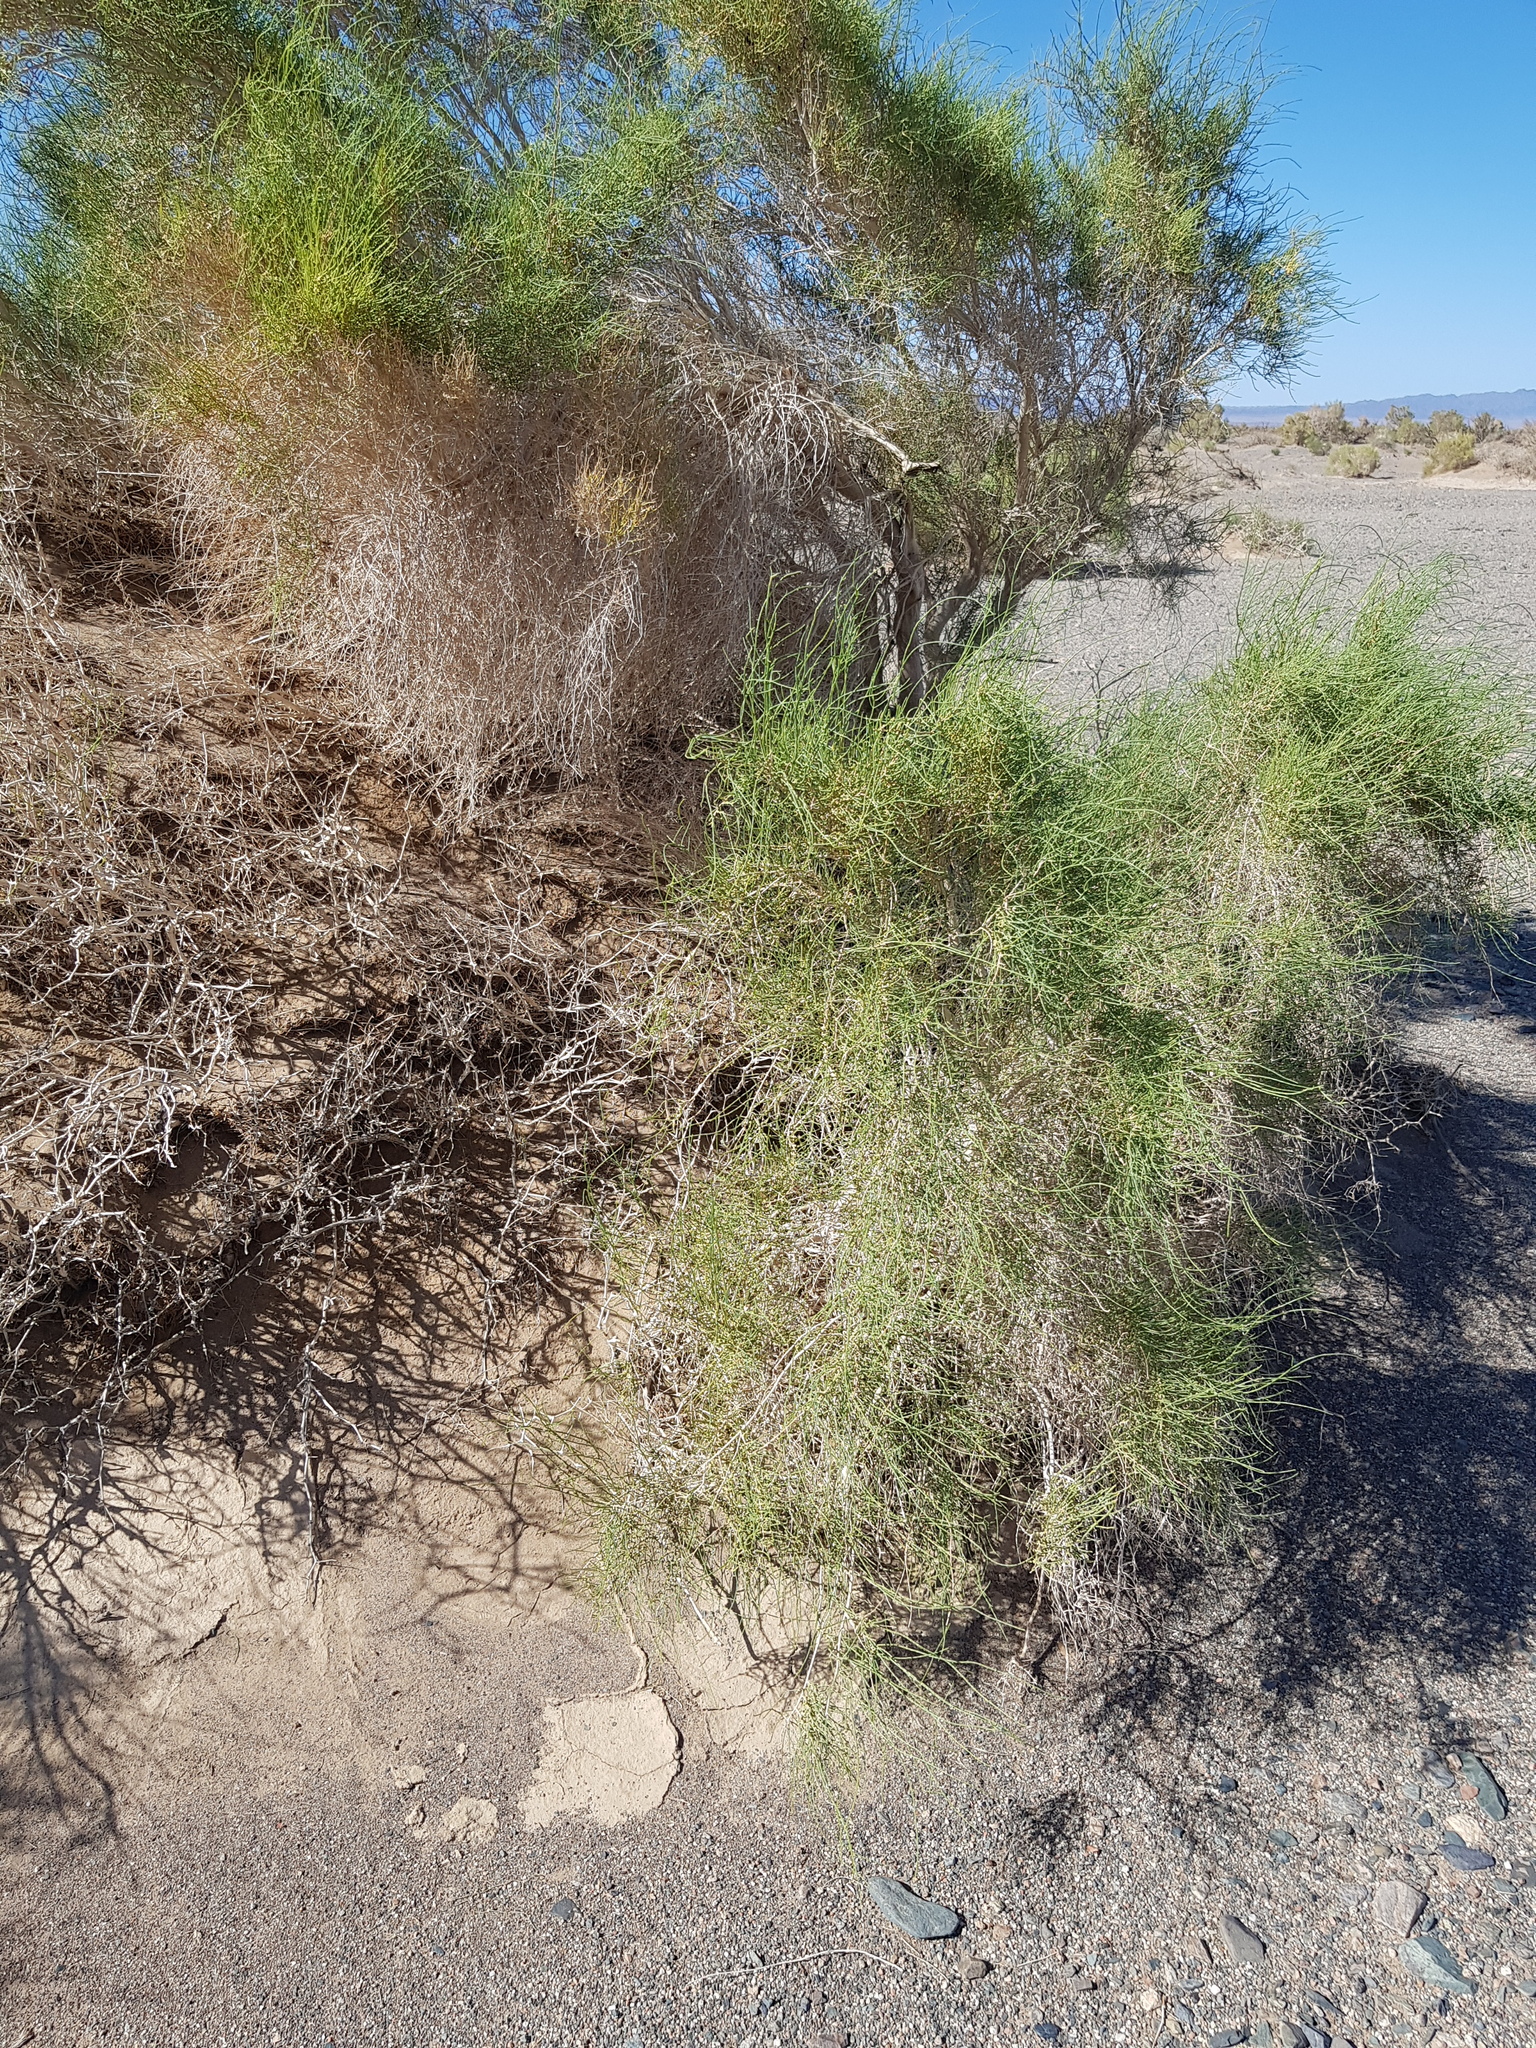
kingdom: Plantae
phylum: Tracheophyta
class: Magnoliopsida
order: Caryophyllales
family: Polygonaceae
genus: Calligonum
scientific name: Calligonum mongolicum
